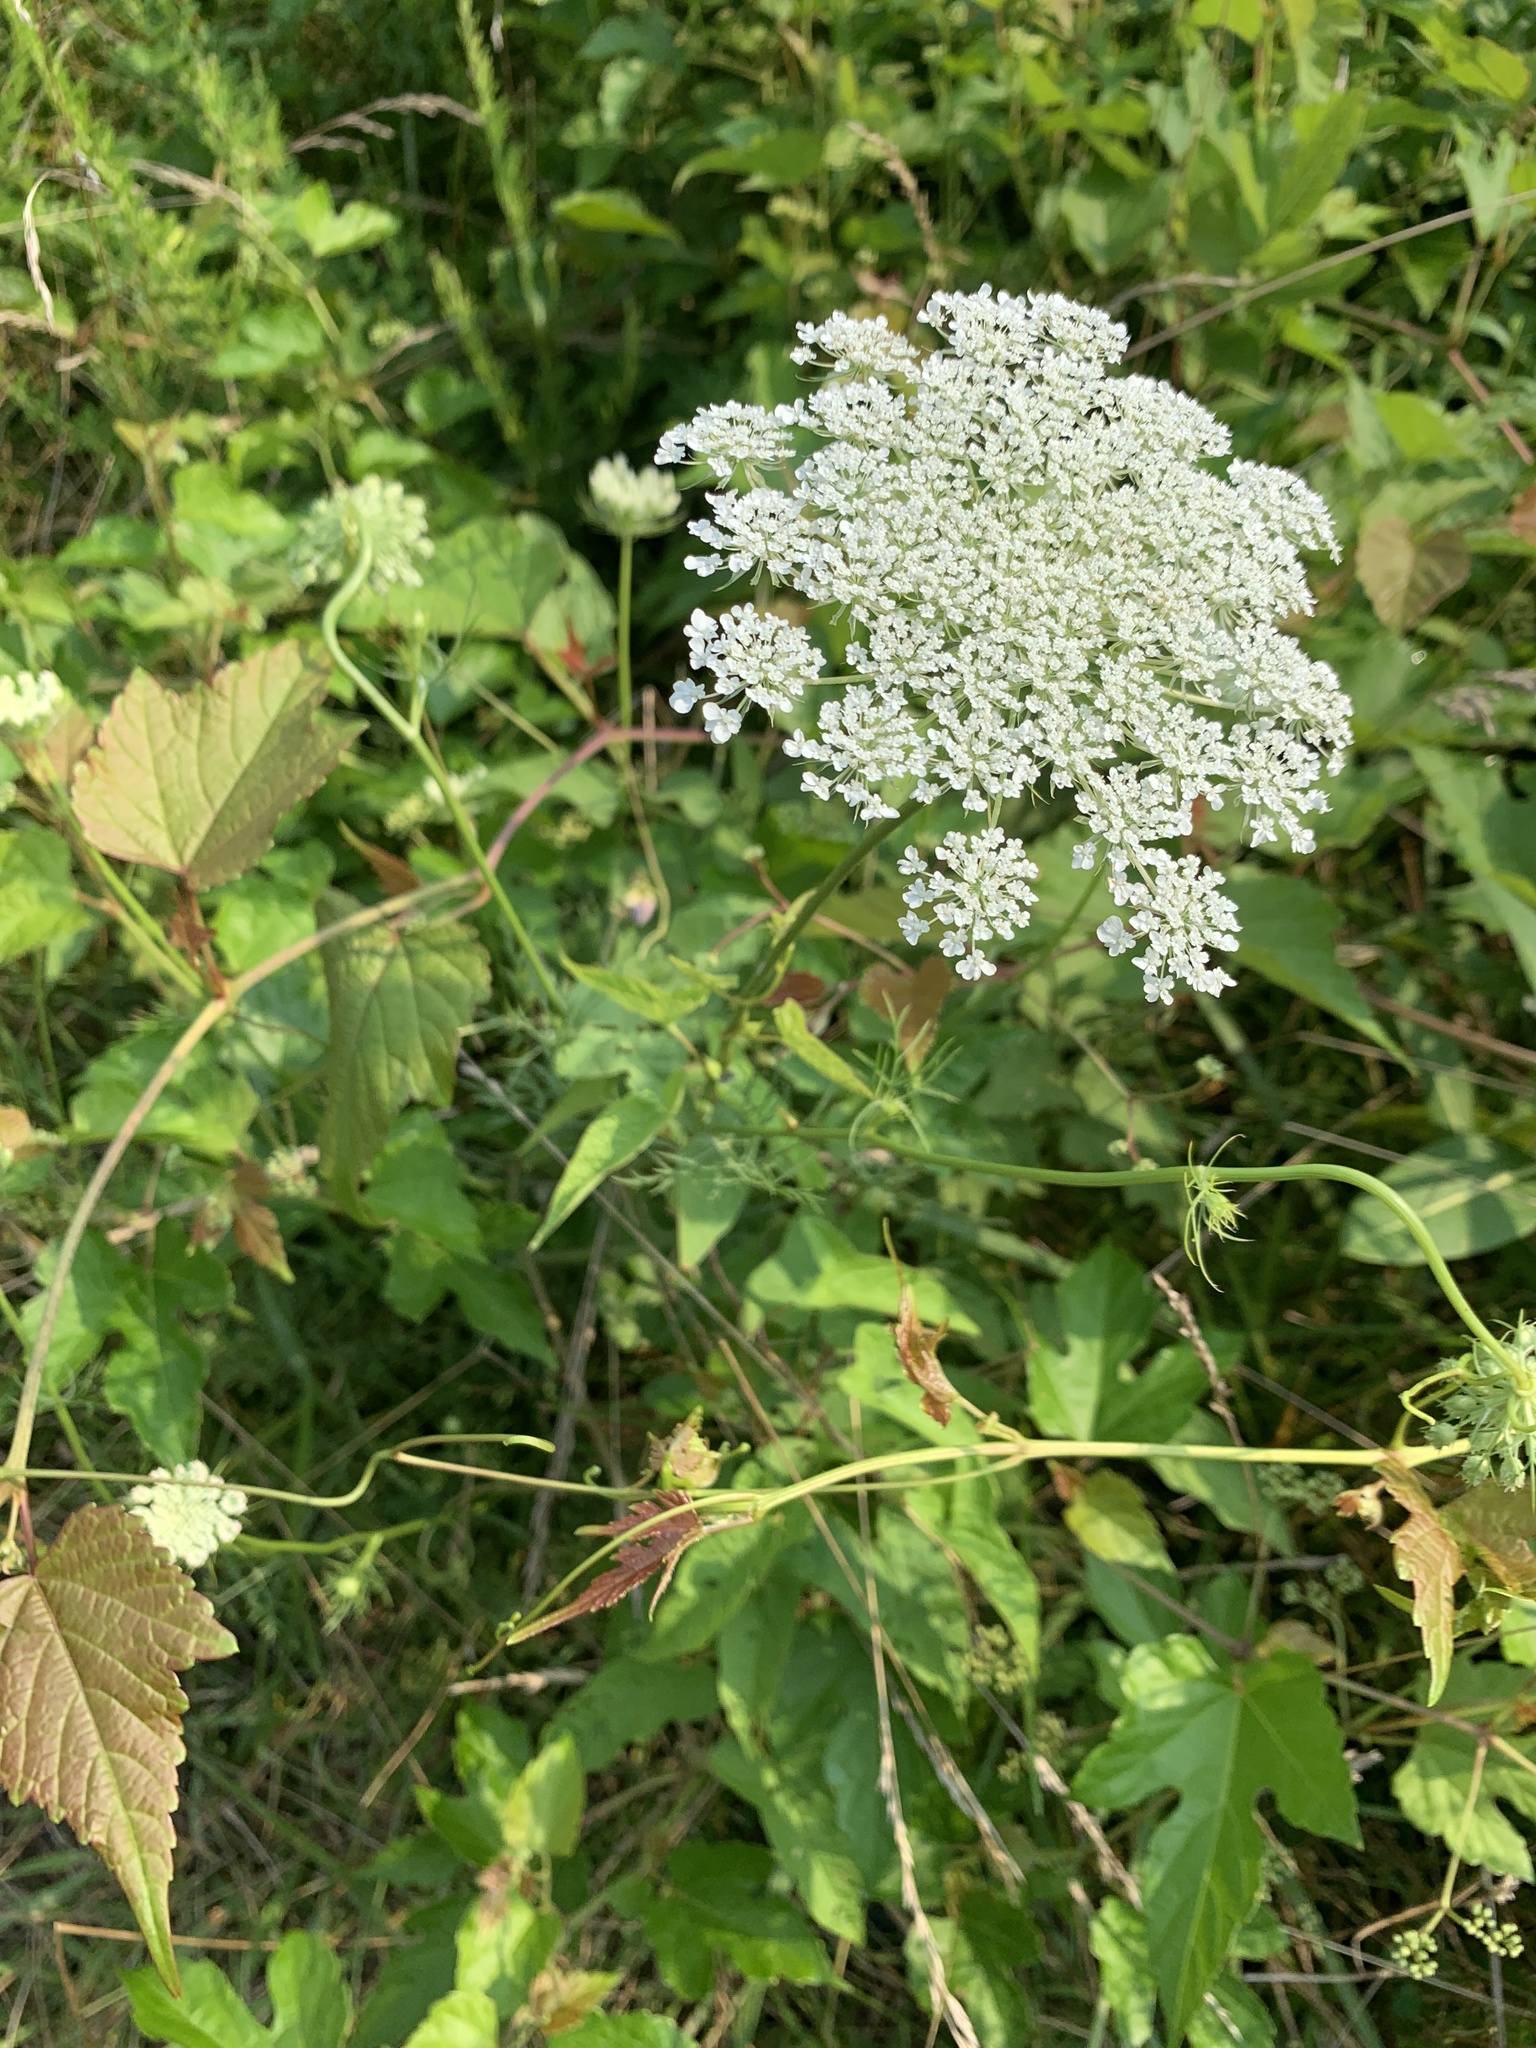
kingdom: Plantae
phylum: Tracheophyta
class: Magnoliopsida
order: Apiales
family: Apiaceae
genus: Daucus
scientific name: Daucus carota
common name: Wild carrot
